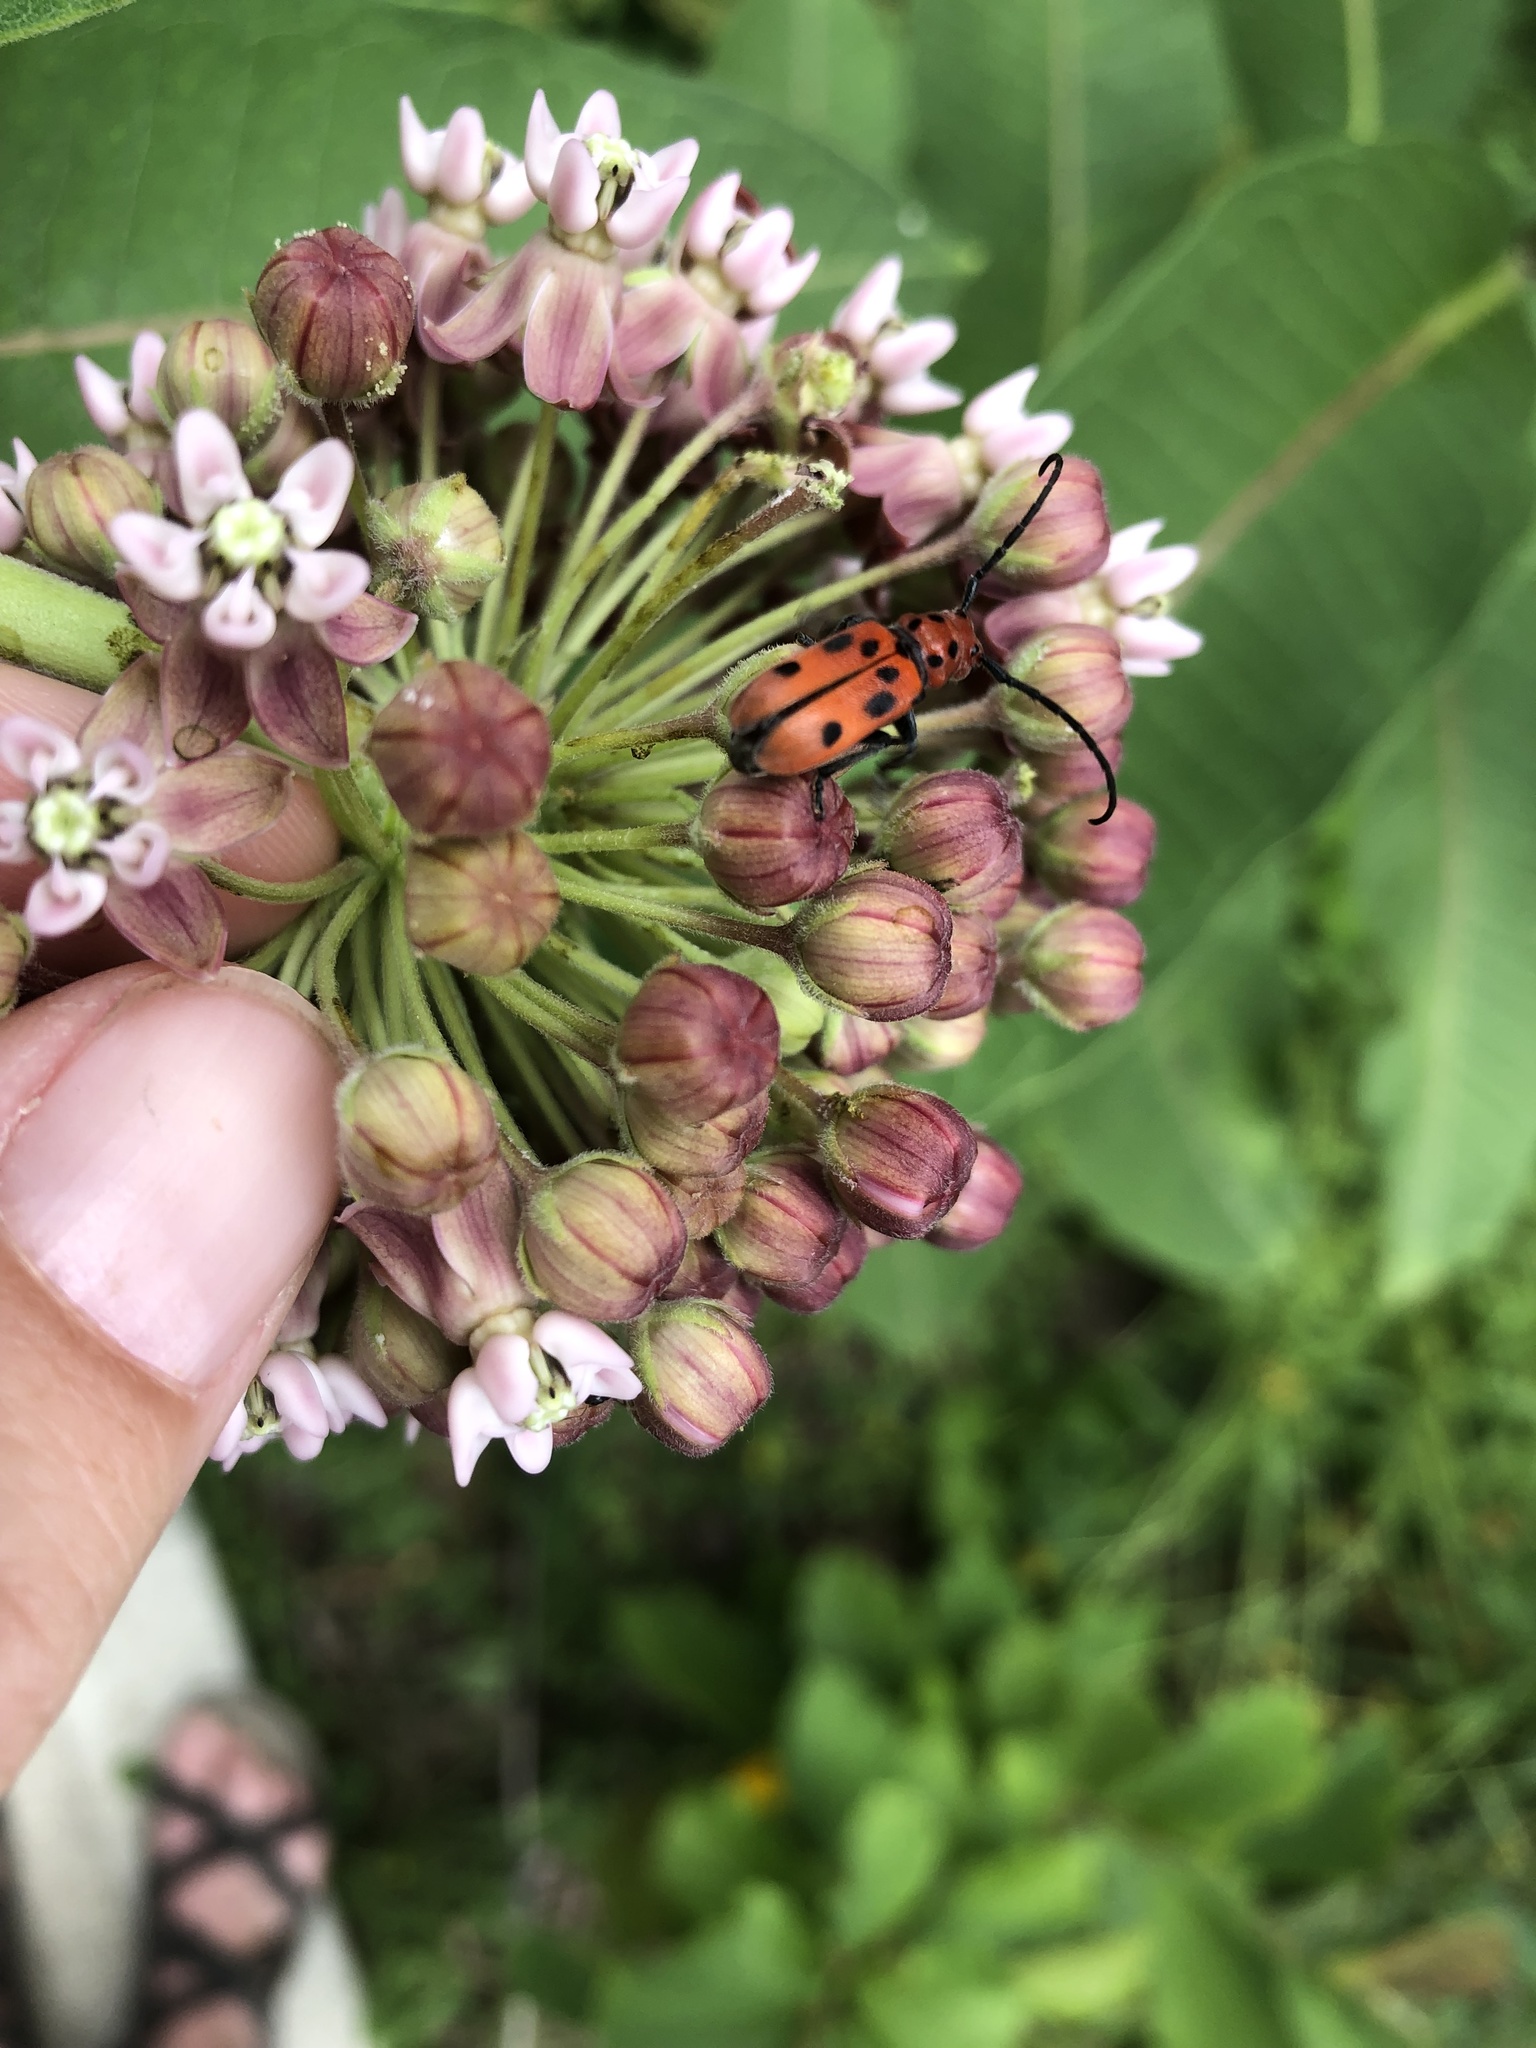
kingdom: Animalia
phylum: Arthropoda
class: Insecta
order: Coleoptera
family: Cerambycidae
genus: Tetraopes
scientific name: Tetraopes tetrophthalmus
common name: Red milkweed beetle
